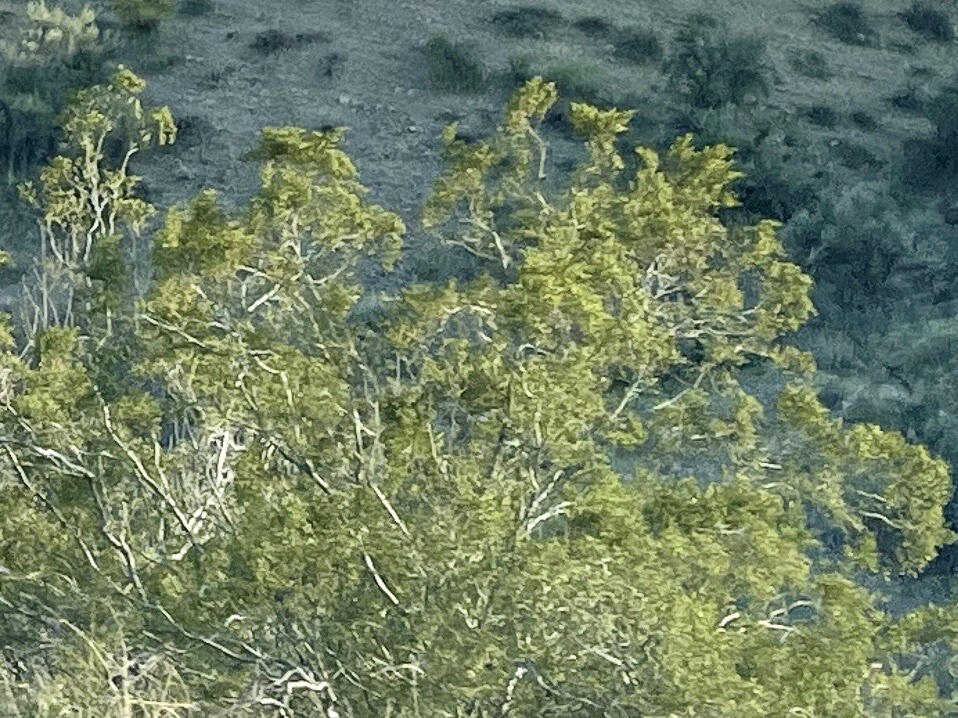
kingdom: Plantae
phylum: Tracheophyta
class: Magnoliopsida
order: Zygophyllales
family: Zygophyllaceae
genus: Larrea
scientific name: Larrea tridentata
